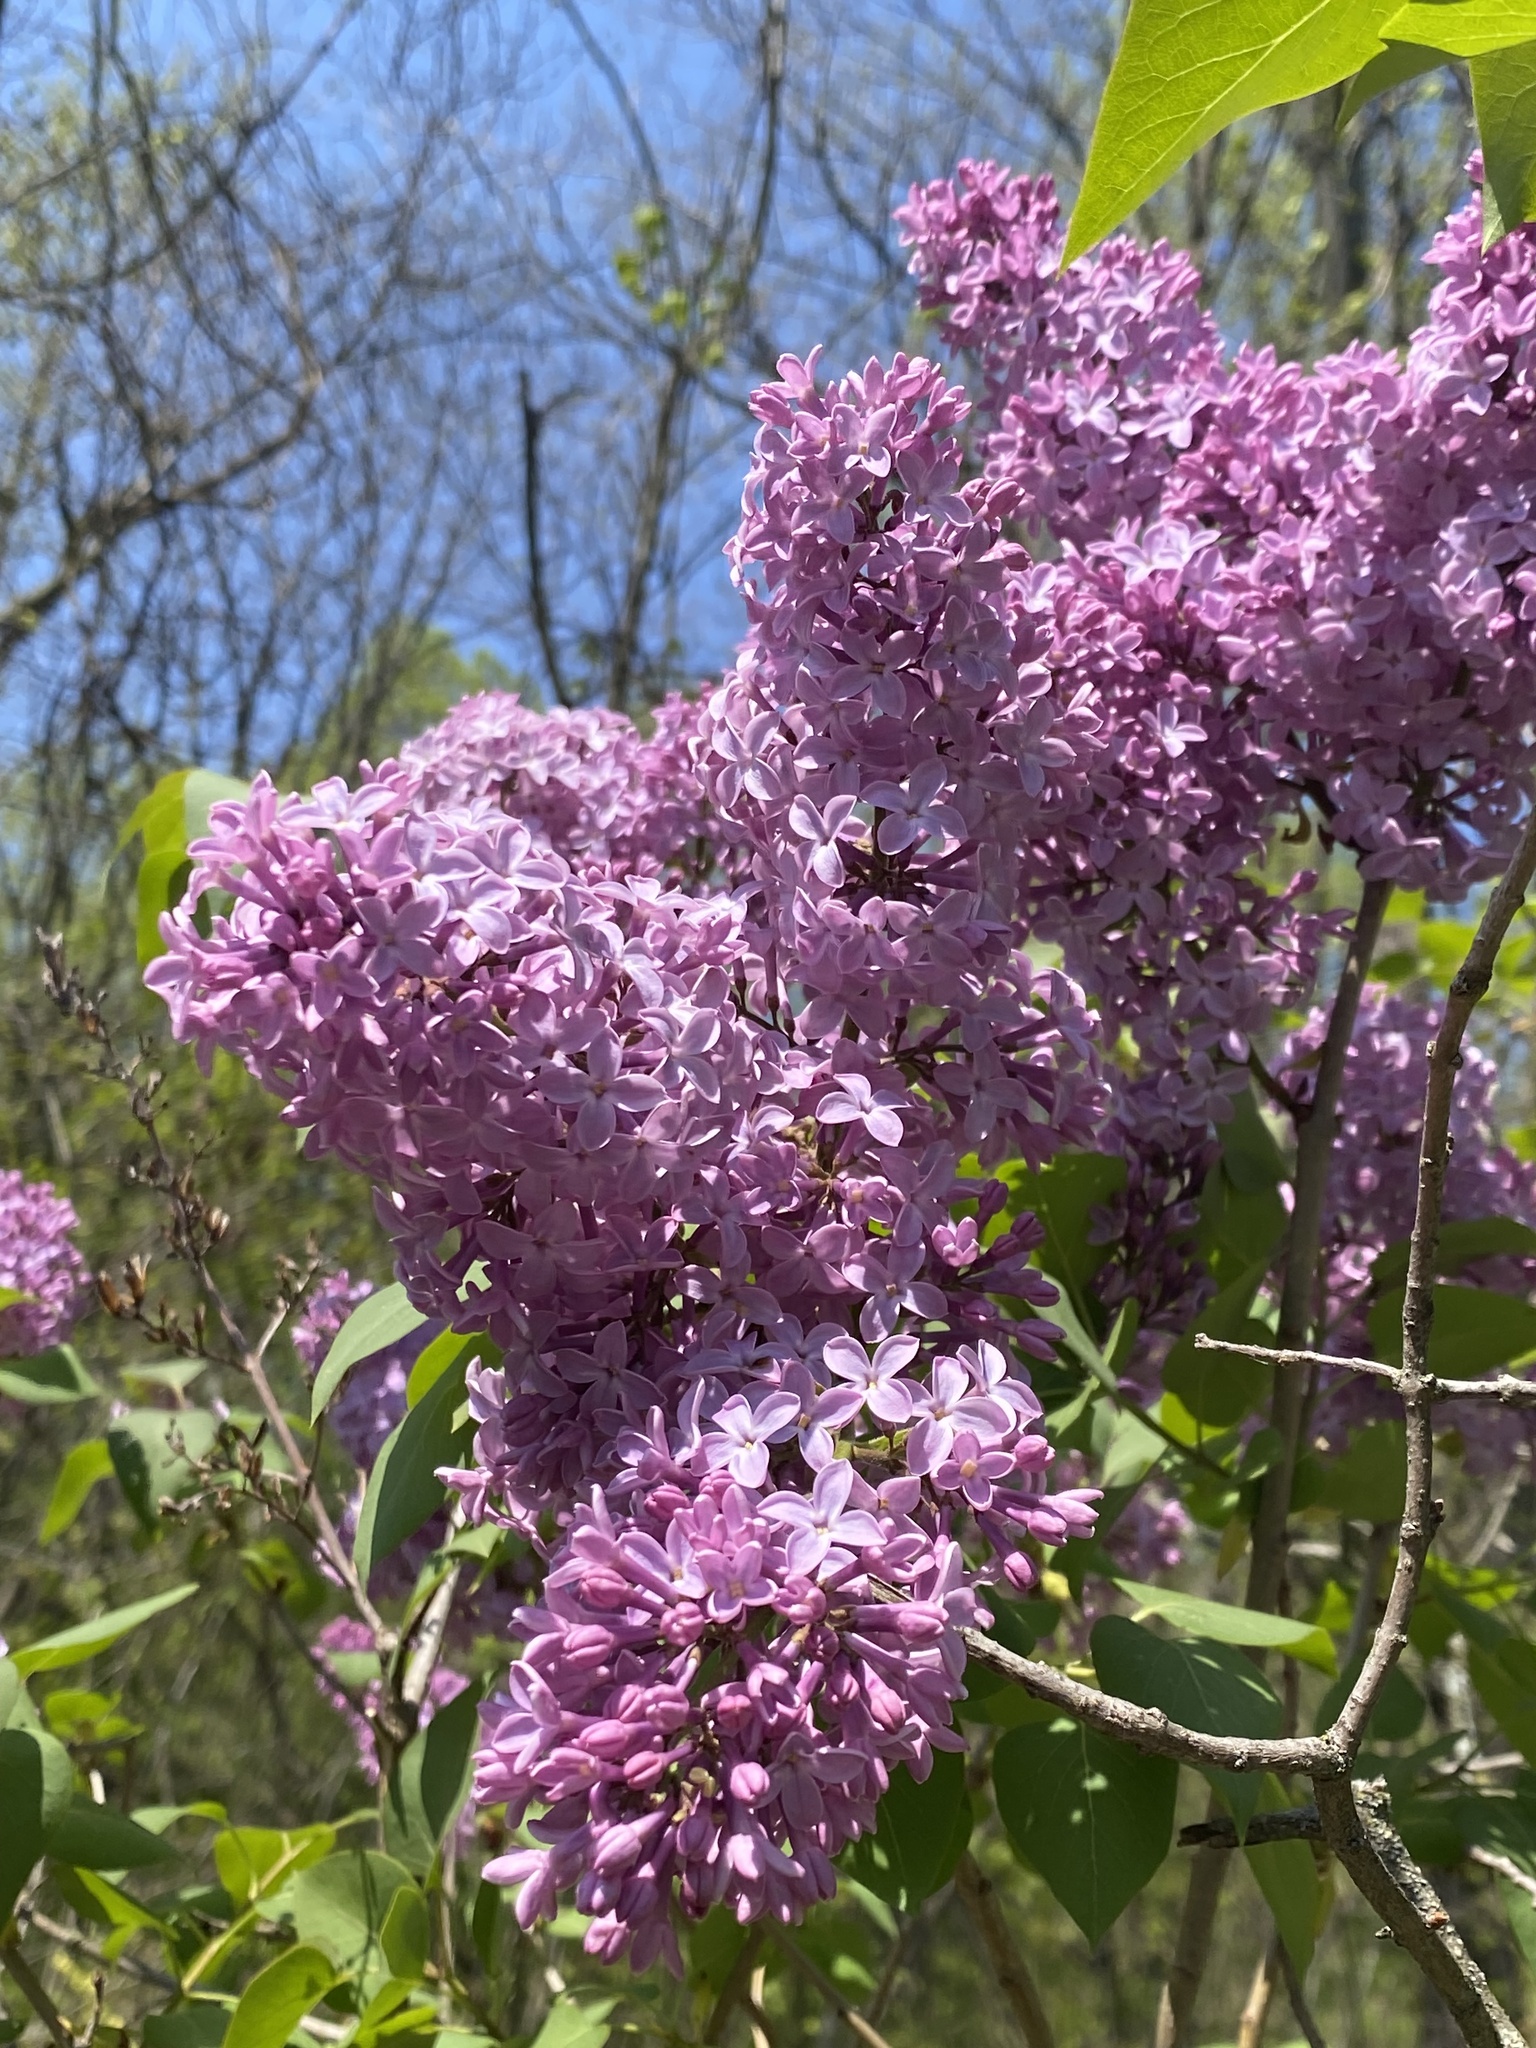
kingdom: Plantae
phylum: Tracheophyta
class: Magnoliopsida
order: Lamiales
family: Oleaceae
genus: Syringa
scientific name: Syringa vulgaris
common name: Common lilac
